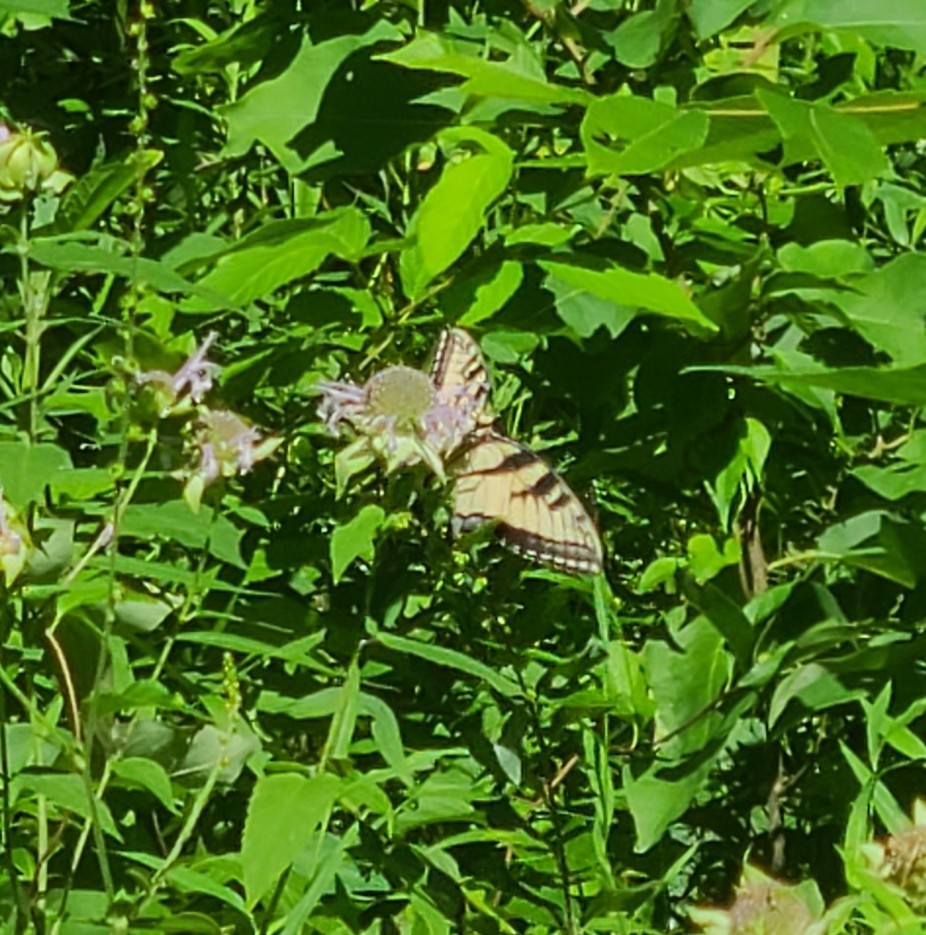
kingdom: Animalia
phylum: Arthropoda
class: Insecta
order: Lepidoptera
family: Papilionidae
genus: Papilio
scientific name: Papilio glaucus
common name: Tiger swallowtail
